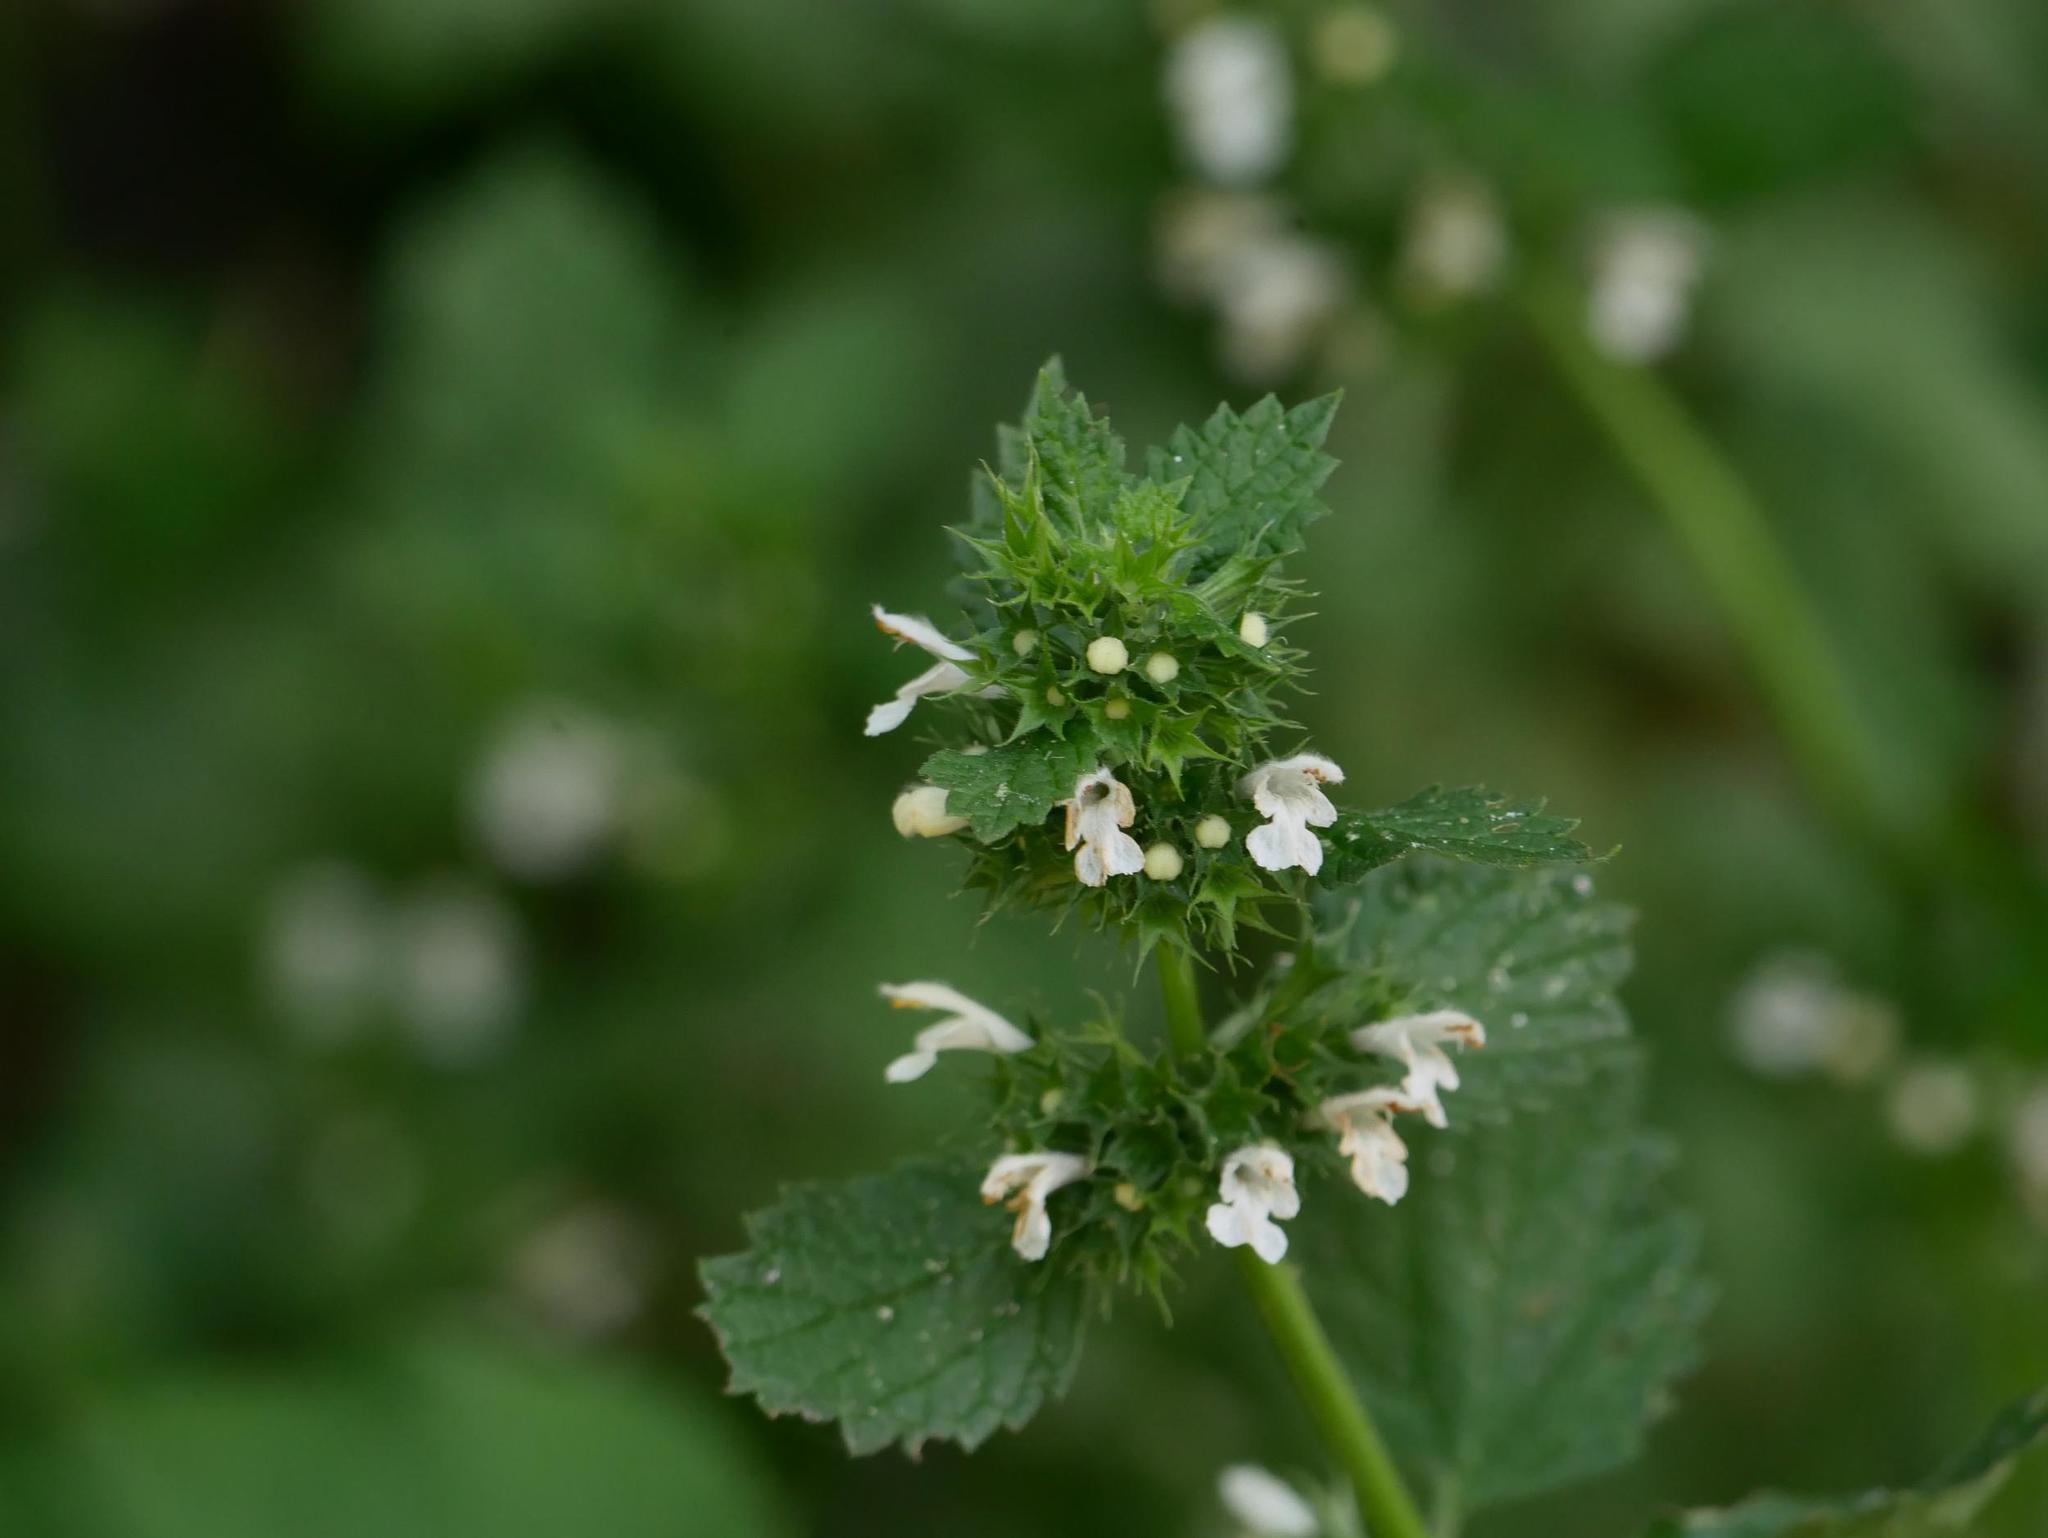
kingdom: Plantae
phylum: Tracheophyta
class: Magnoliopsida
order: Lamiales
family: Lamiaceae
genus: Ballota
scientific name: Ballota nigra
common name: Black horehound
